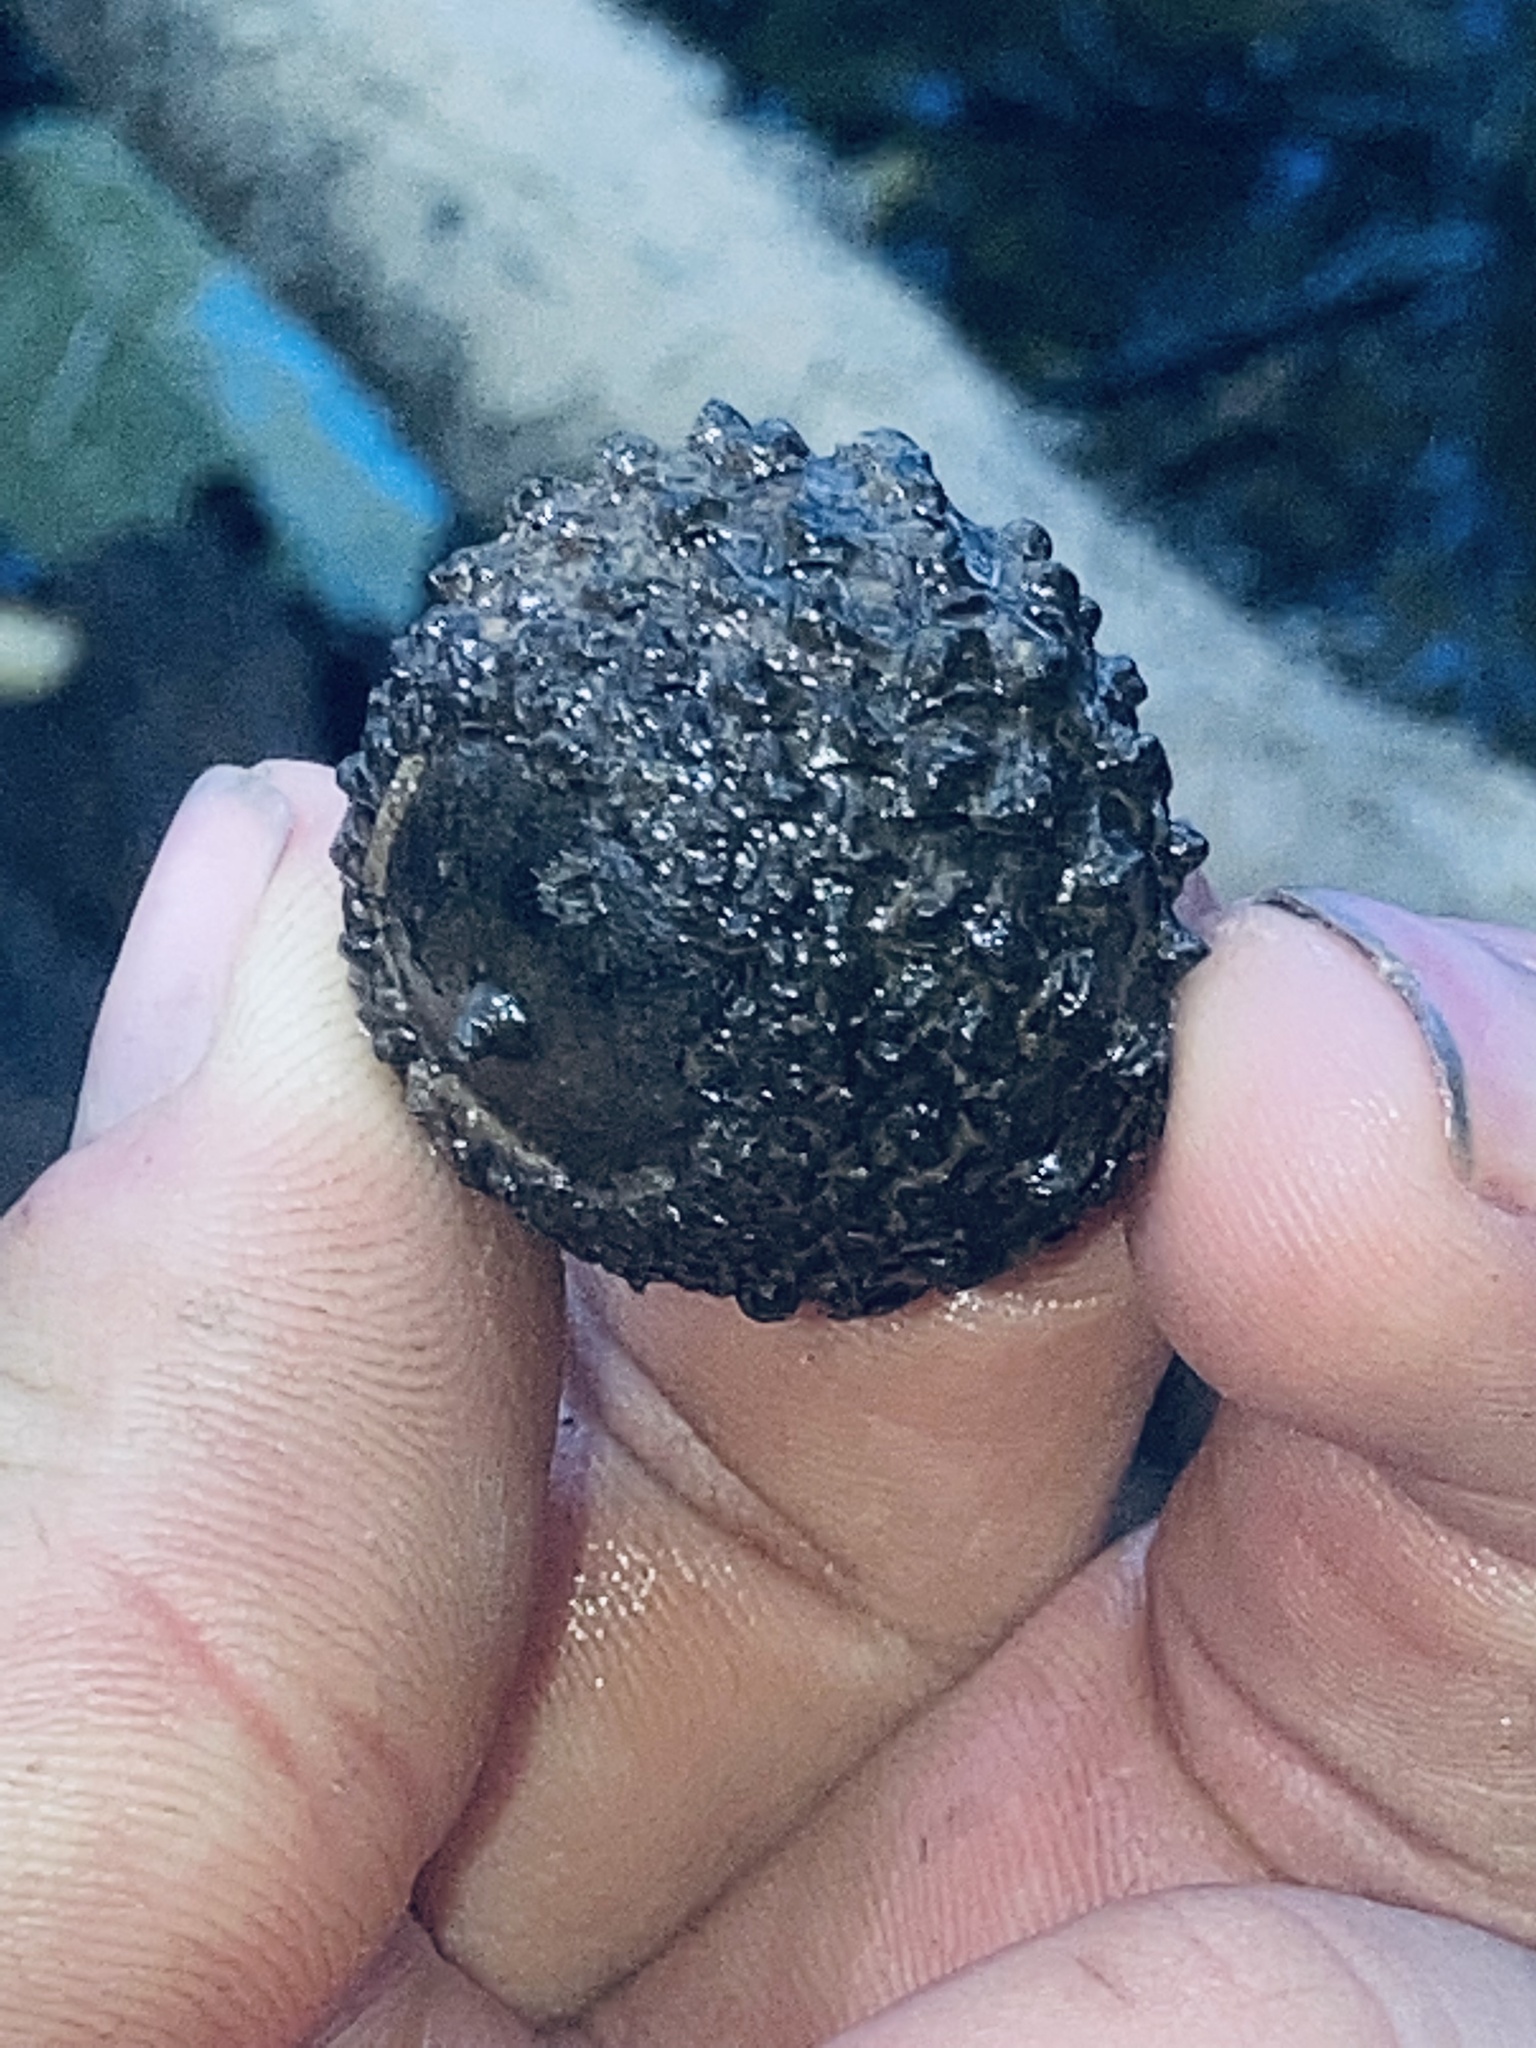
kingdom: Plantae
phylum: Tracheophyta
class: Magnoliopsida
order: Fagales
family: Fagaceae
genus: Quercus
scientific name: Quercus lyrata
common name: Overcup oak
